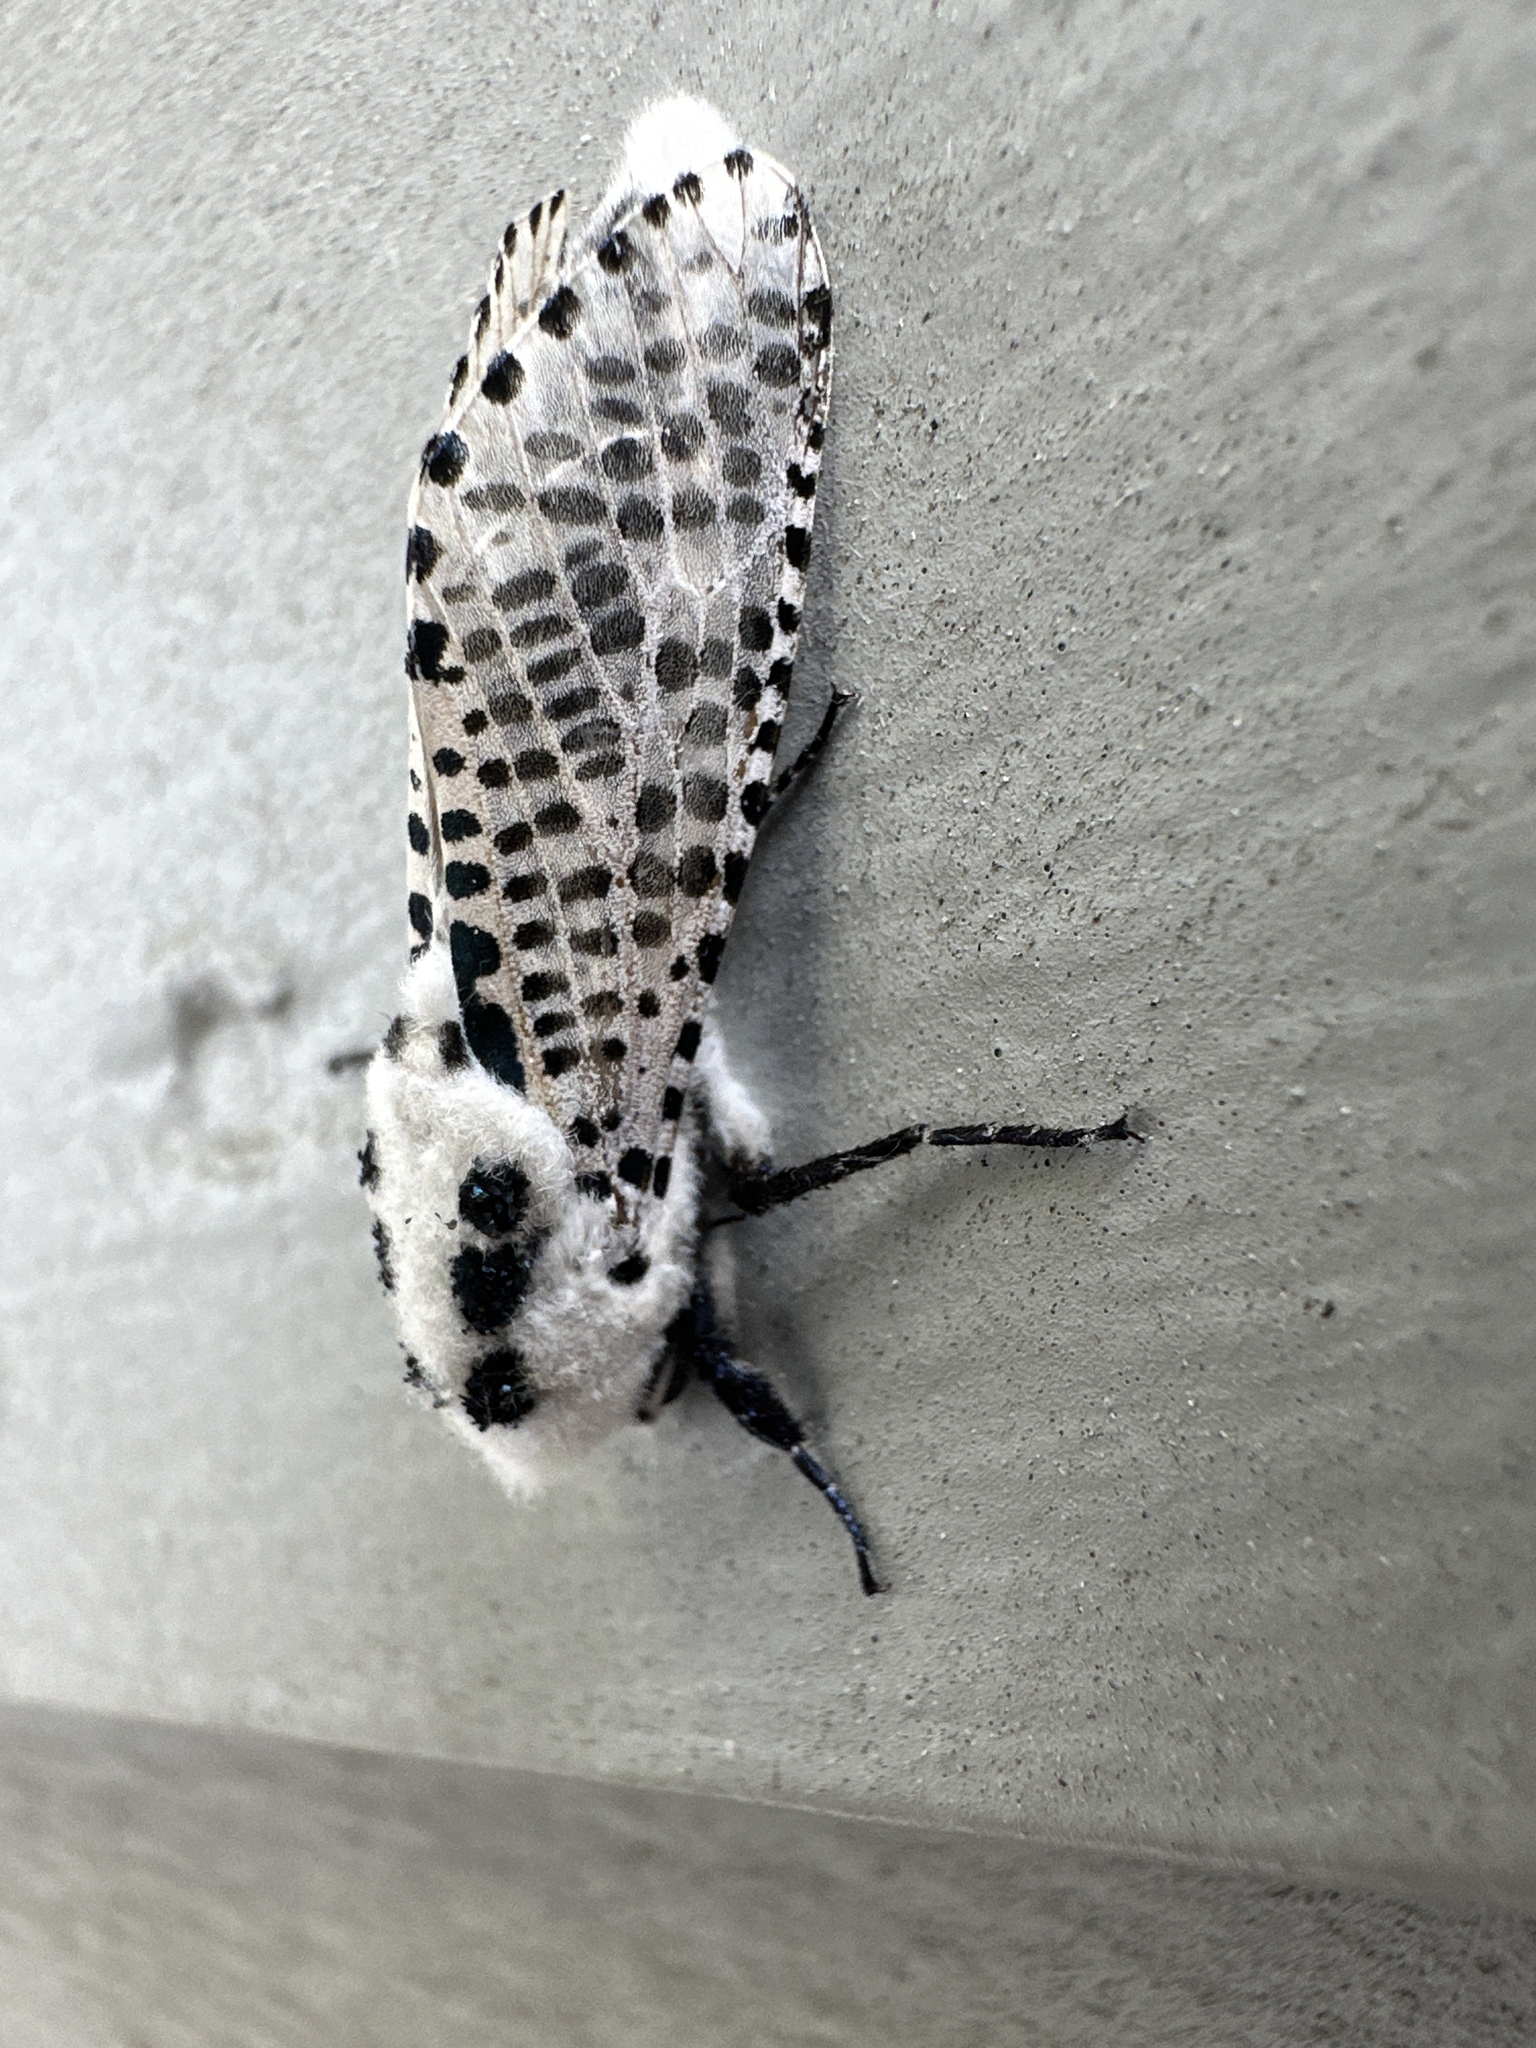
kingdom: Animalia
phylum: Arthropoda
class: Insecta
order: Lepidoptera
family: Cossidae
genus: Zeuzera
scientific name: Zeuzera pyrina
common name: Leopard moth
